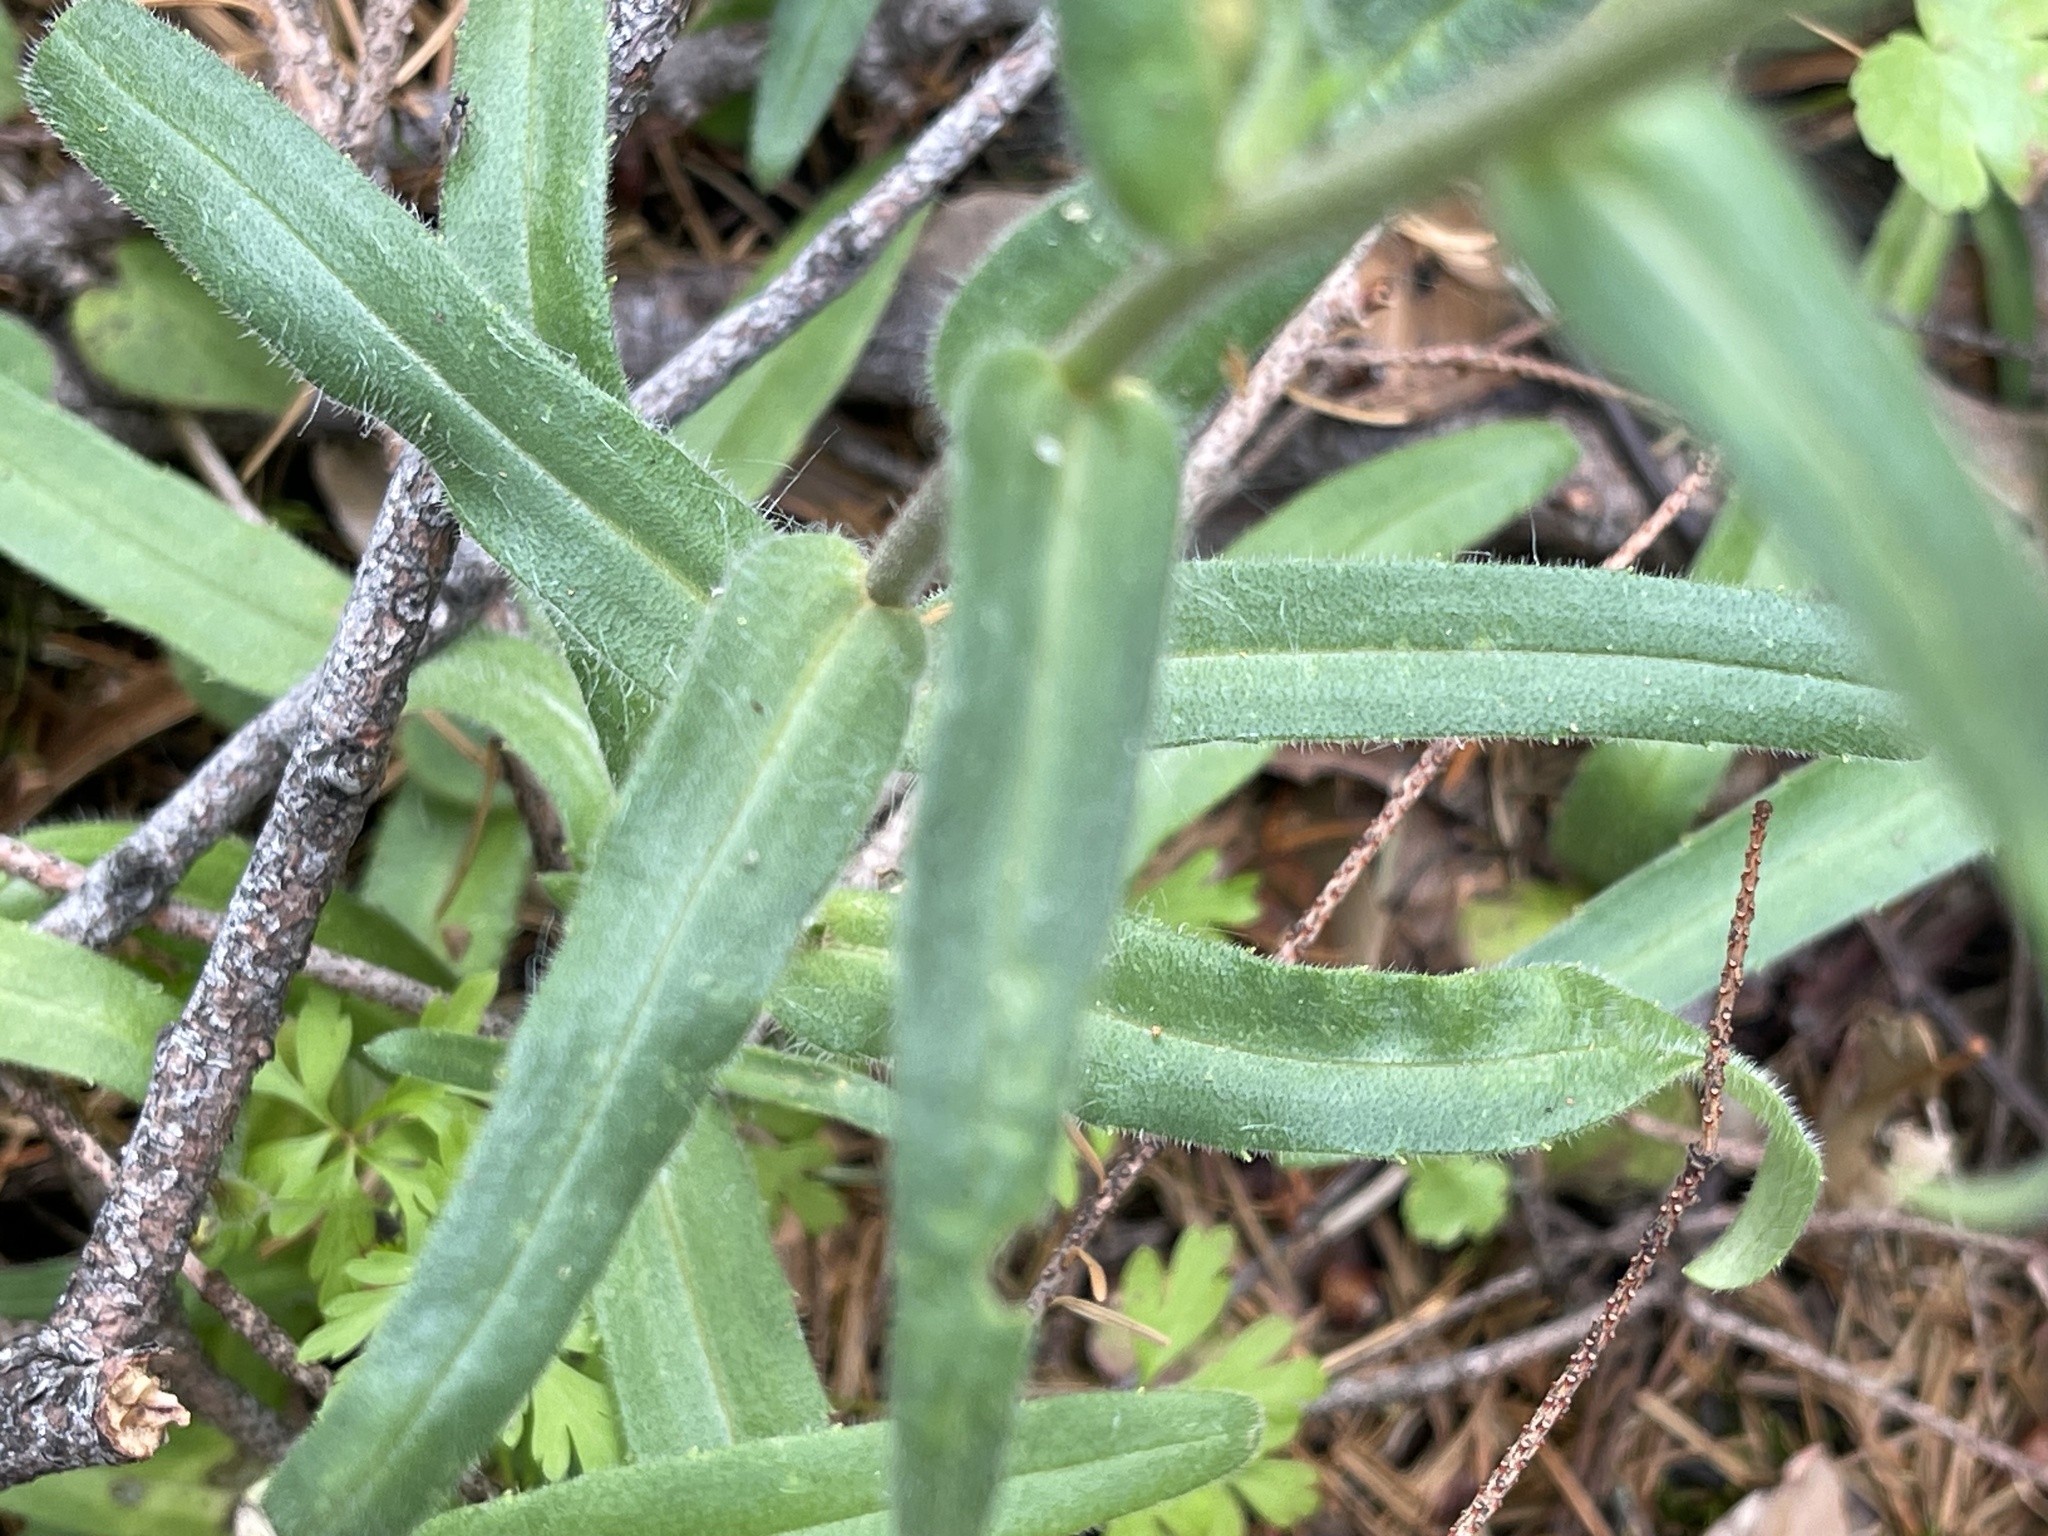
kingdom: Plantae
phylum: Tracheophyta
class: Magnoliopsida
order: Asterales
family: Asteraceae
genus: Anisocarpus
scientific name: Anisocarpus madioides
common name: Woodland madia
